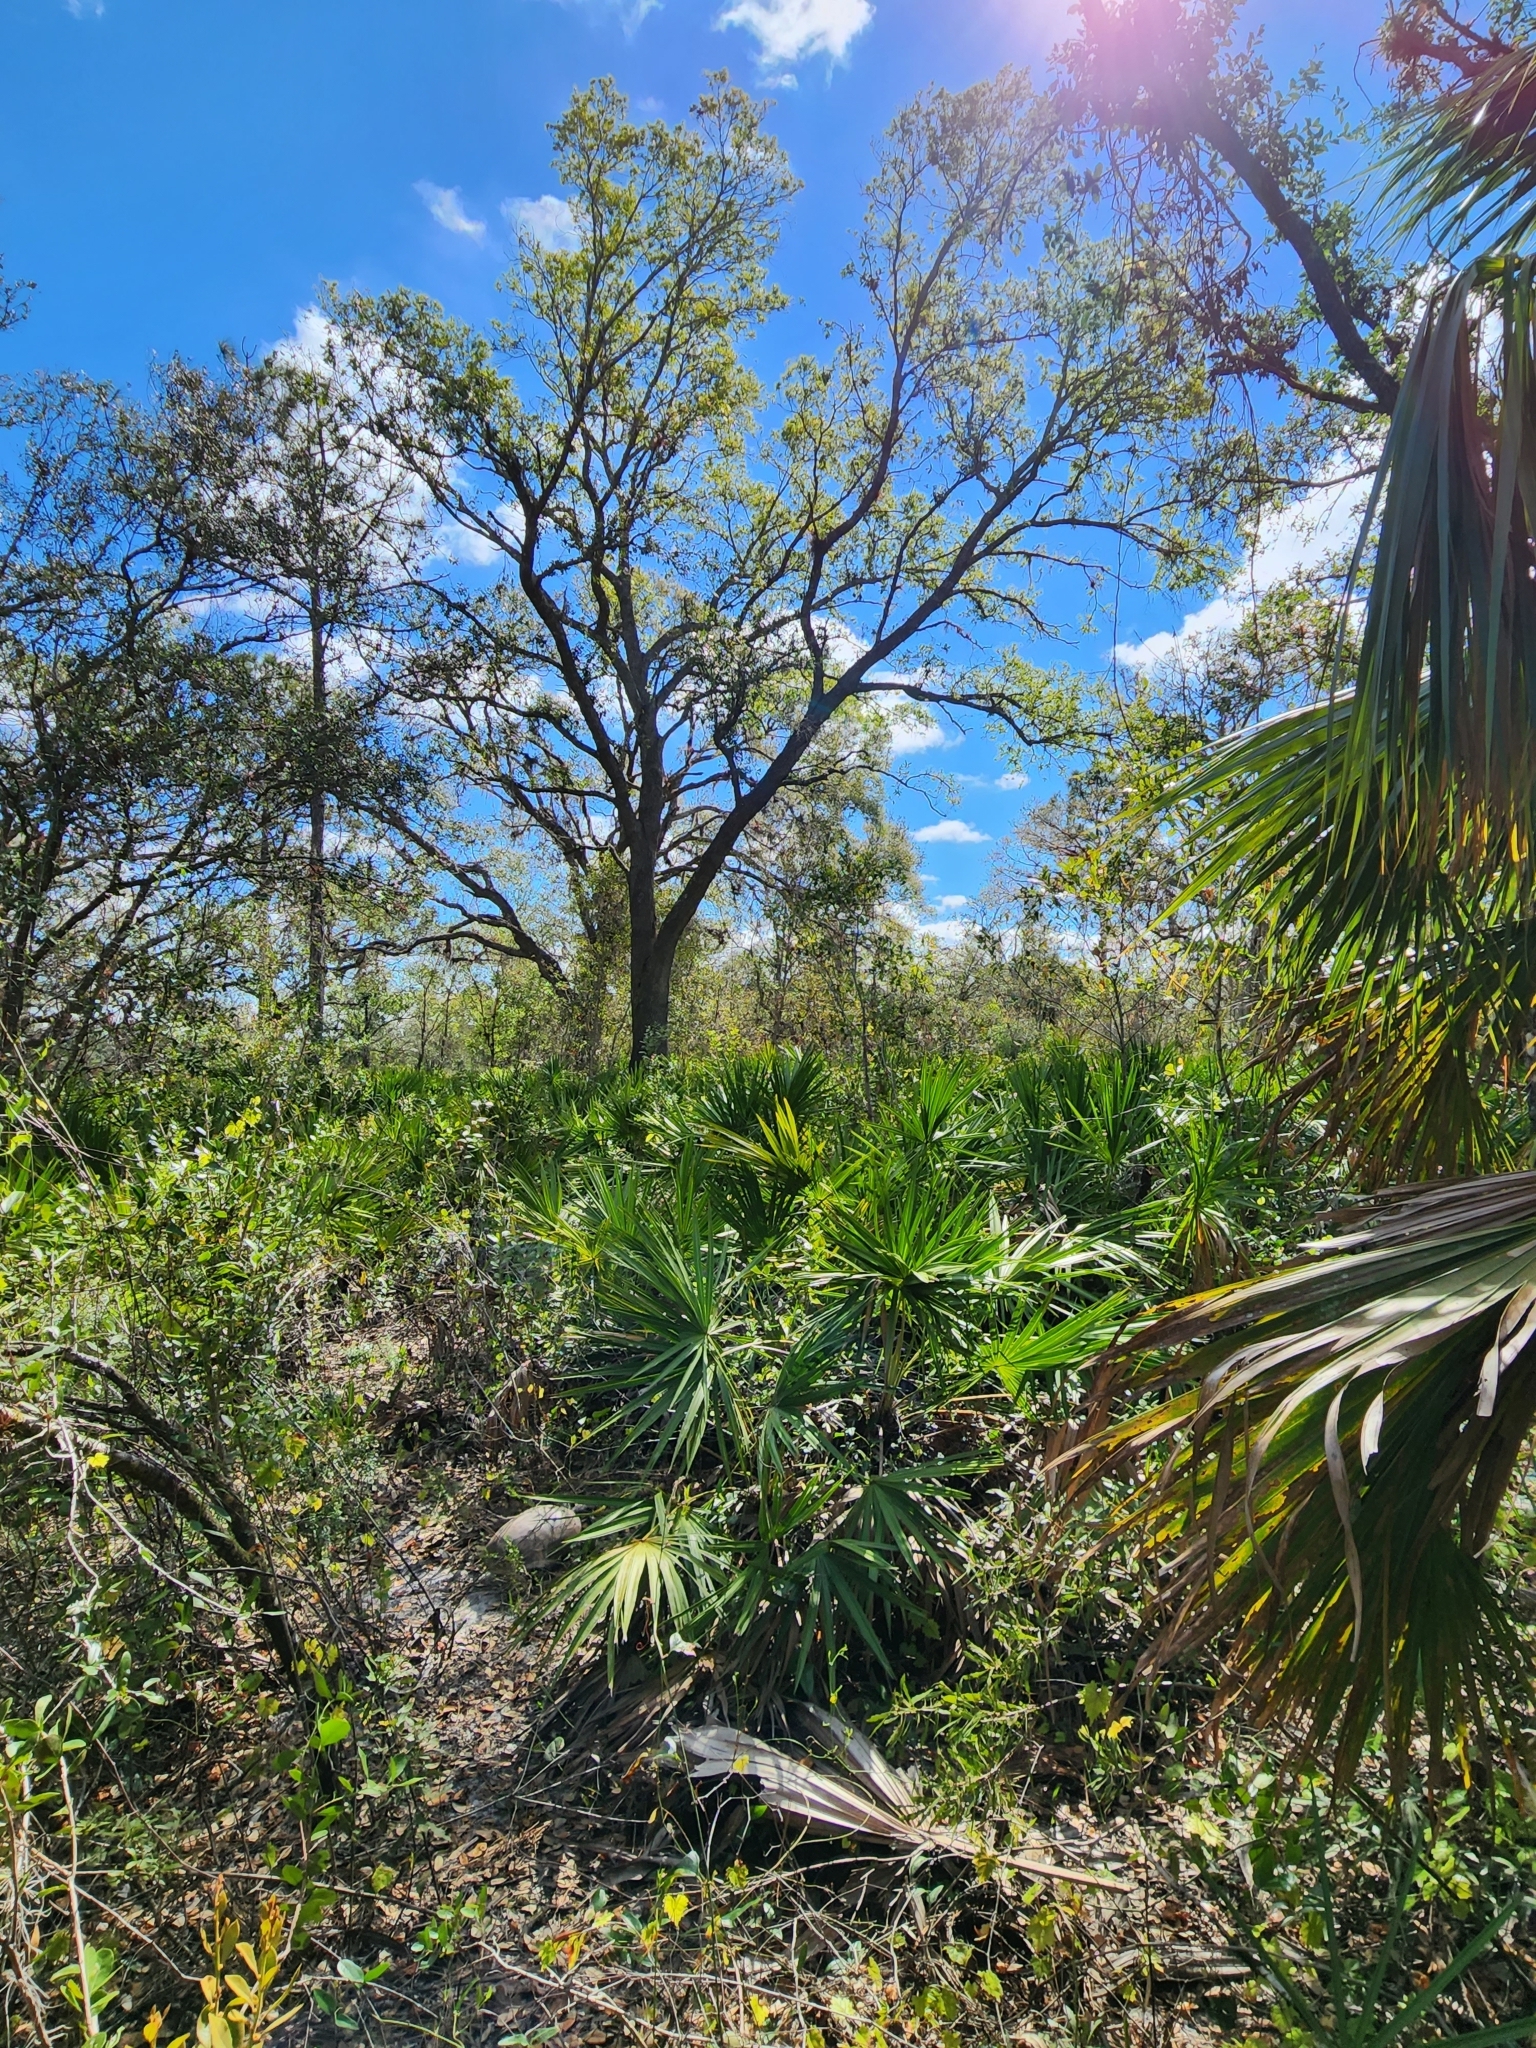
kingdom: Animalia
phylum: Chordata
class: Testudines
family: Testudinidae
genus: Gopherus
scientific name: Gopherus polyphemus
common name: Florida gopher tortoise
